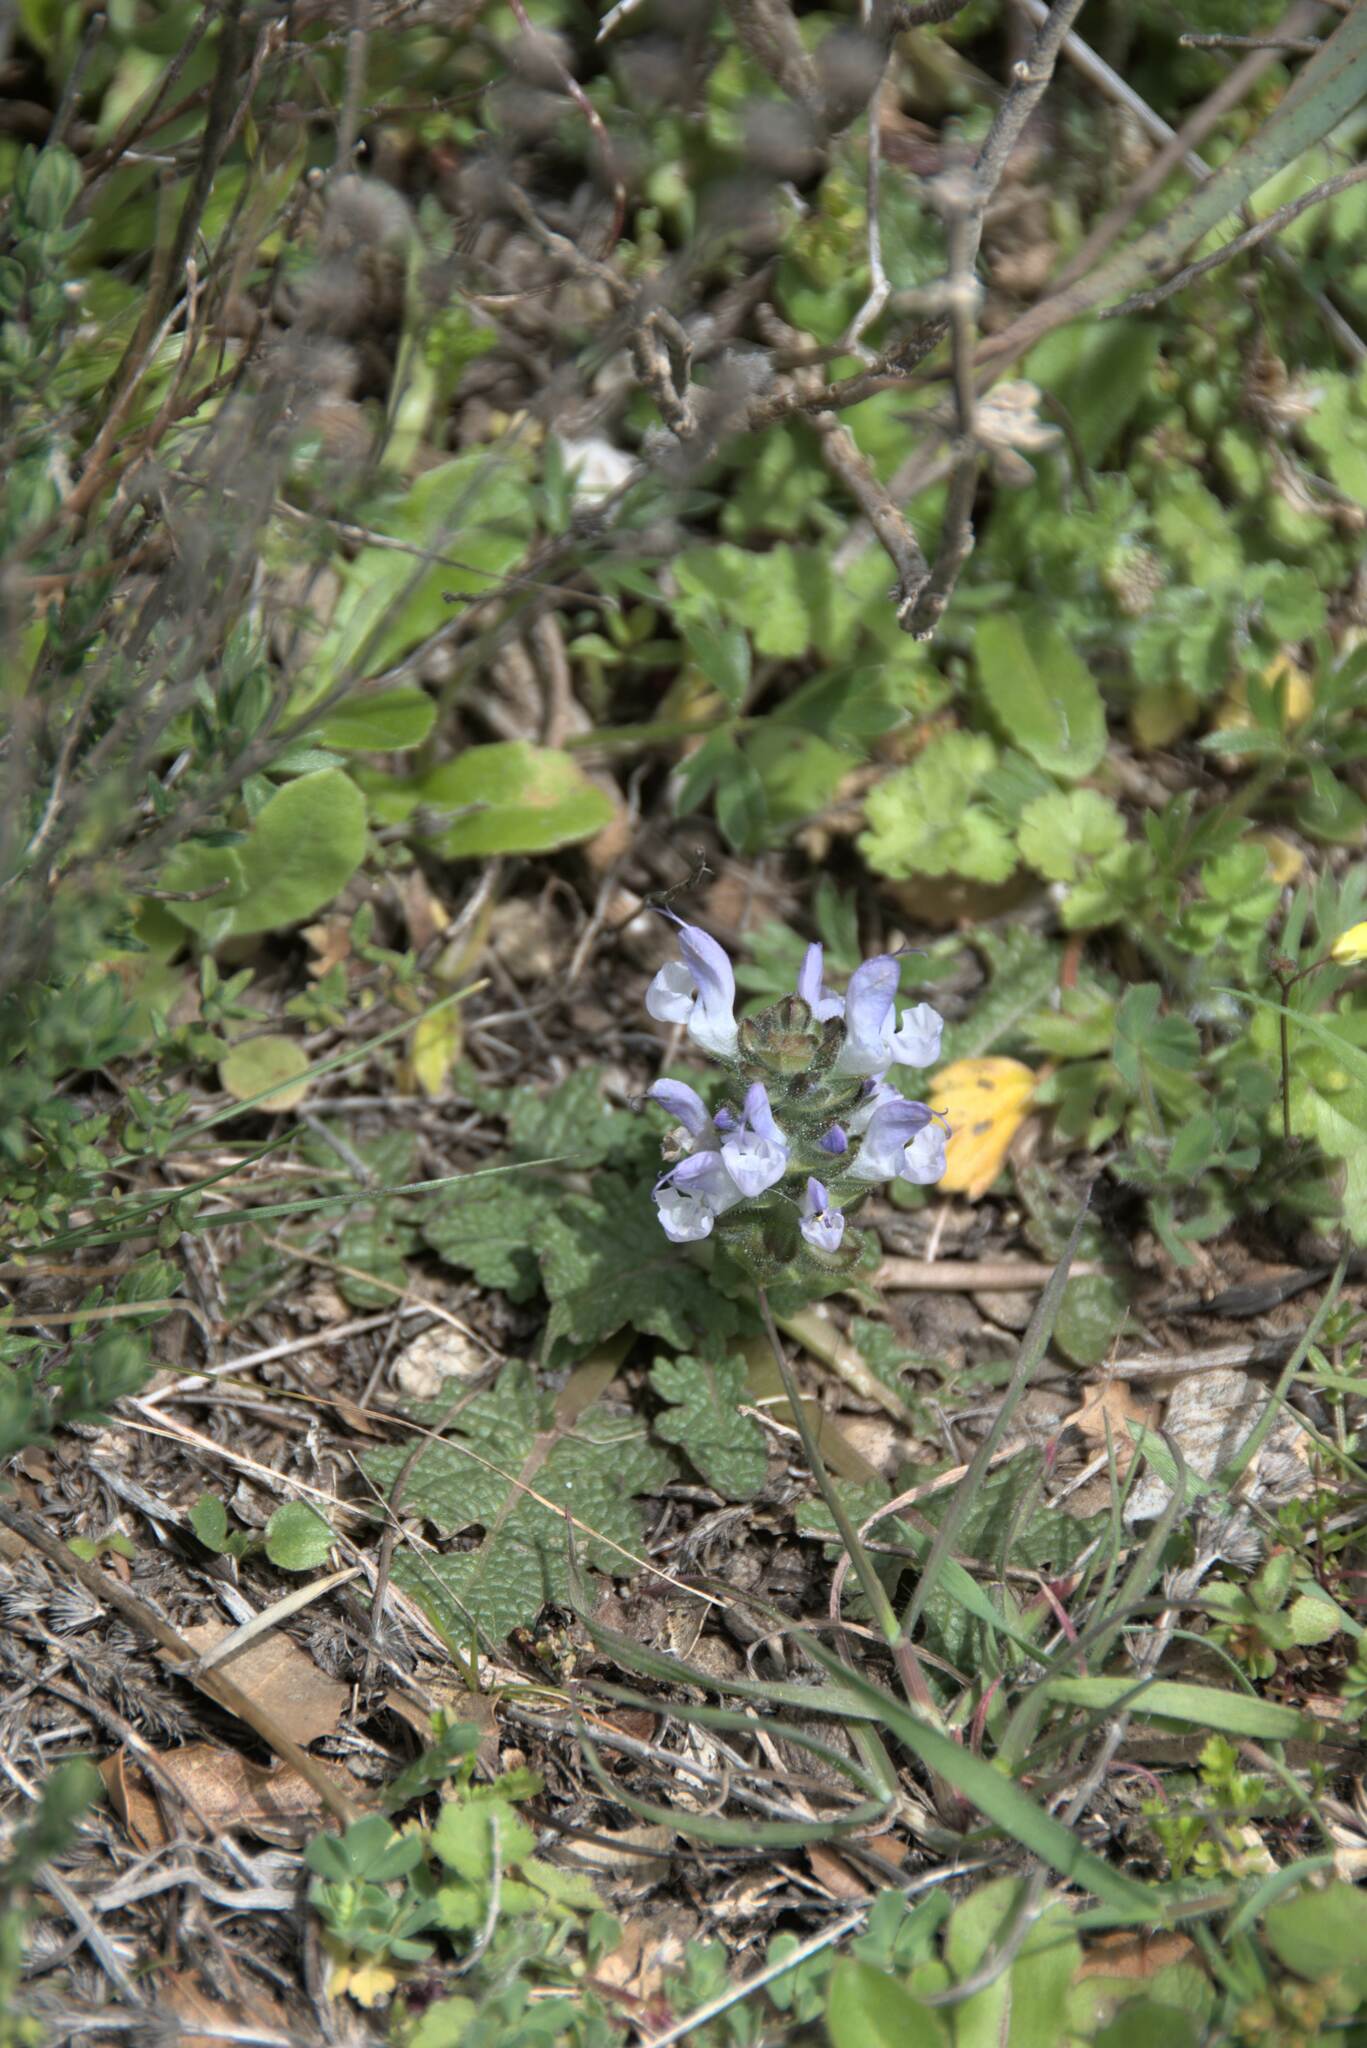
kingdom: Plantae
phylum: Tracheophyta
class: Magnoliopsida
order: Lamiales
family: Lamiaceae
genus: Salvia
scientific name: Salvia clandestina
